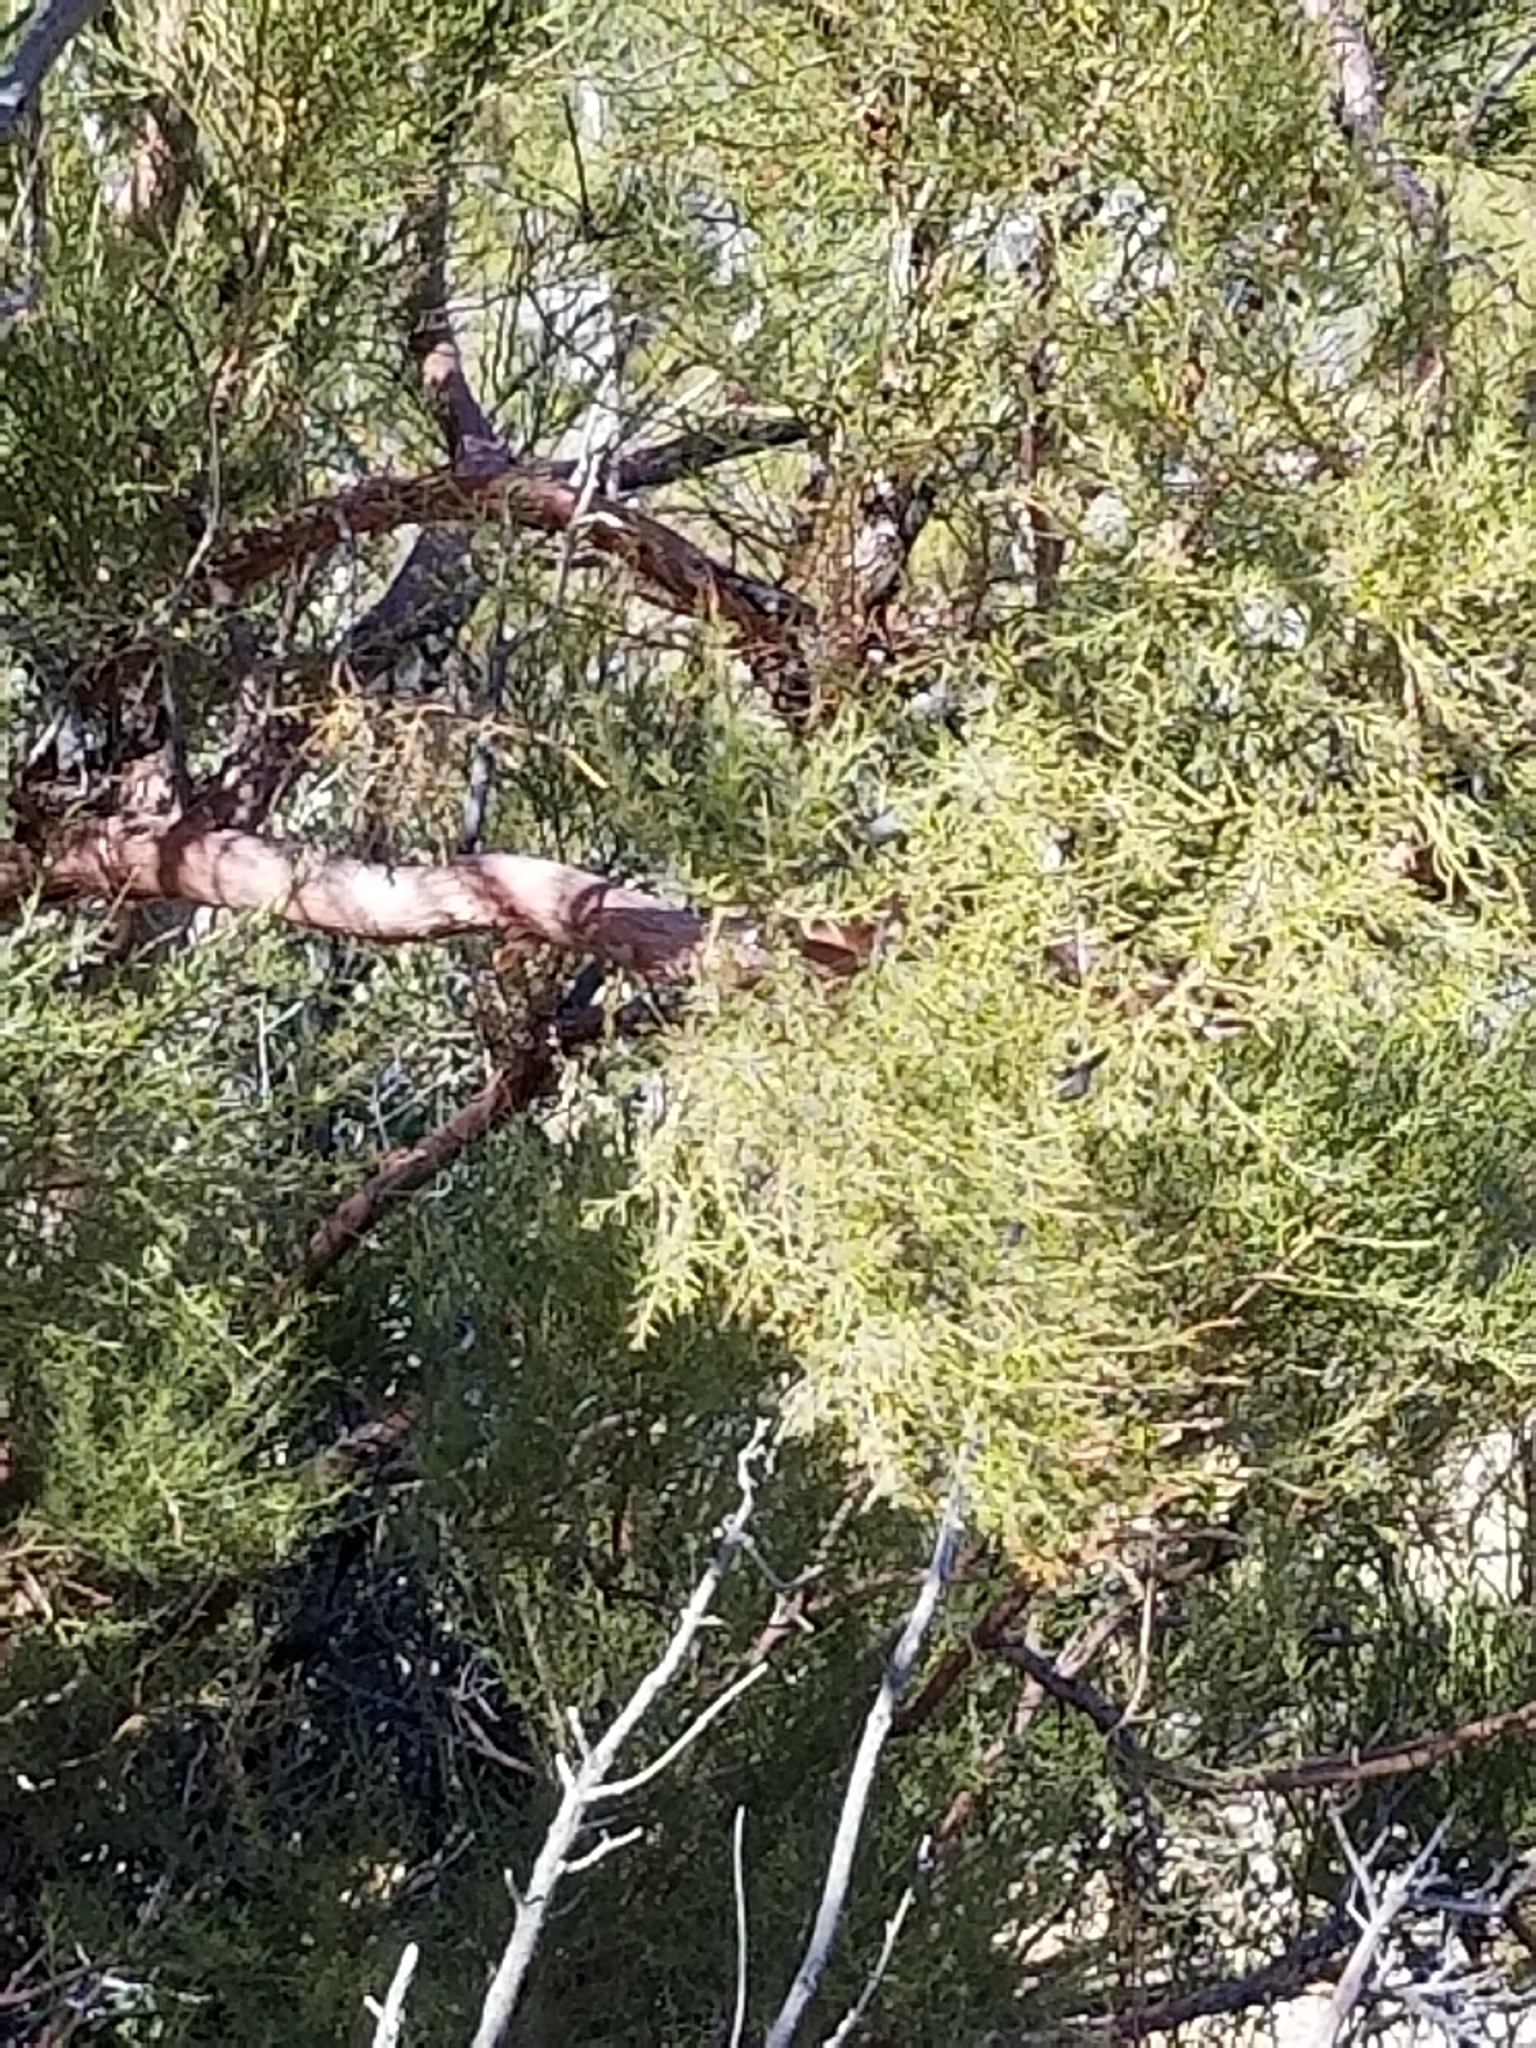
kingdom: Plantae
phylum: Tracheophyta
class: Magnoliopsida
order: Rosales
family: Rosaceae
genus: Adenostoma
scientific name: Adenostoma sparsifolium
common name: Red shank
